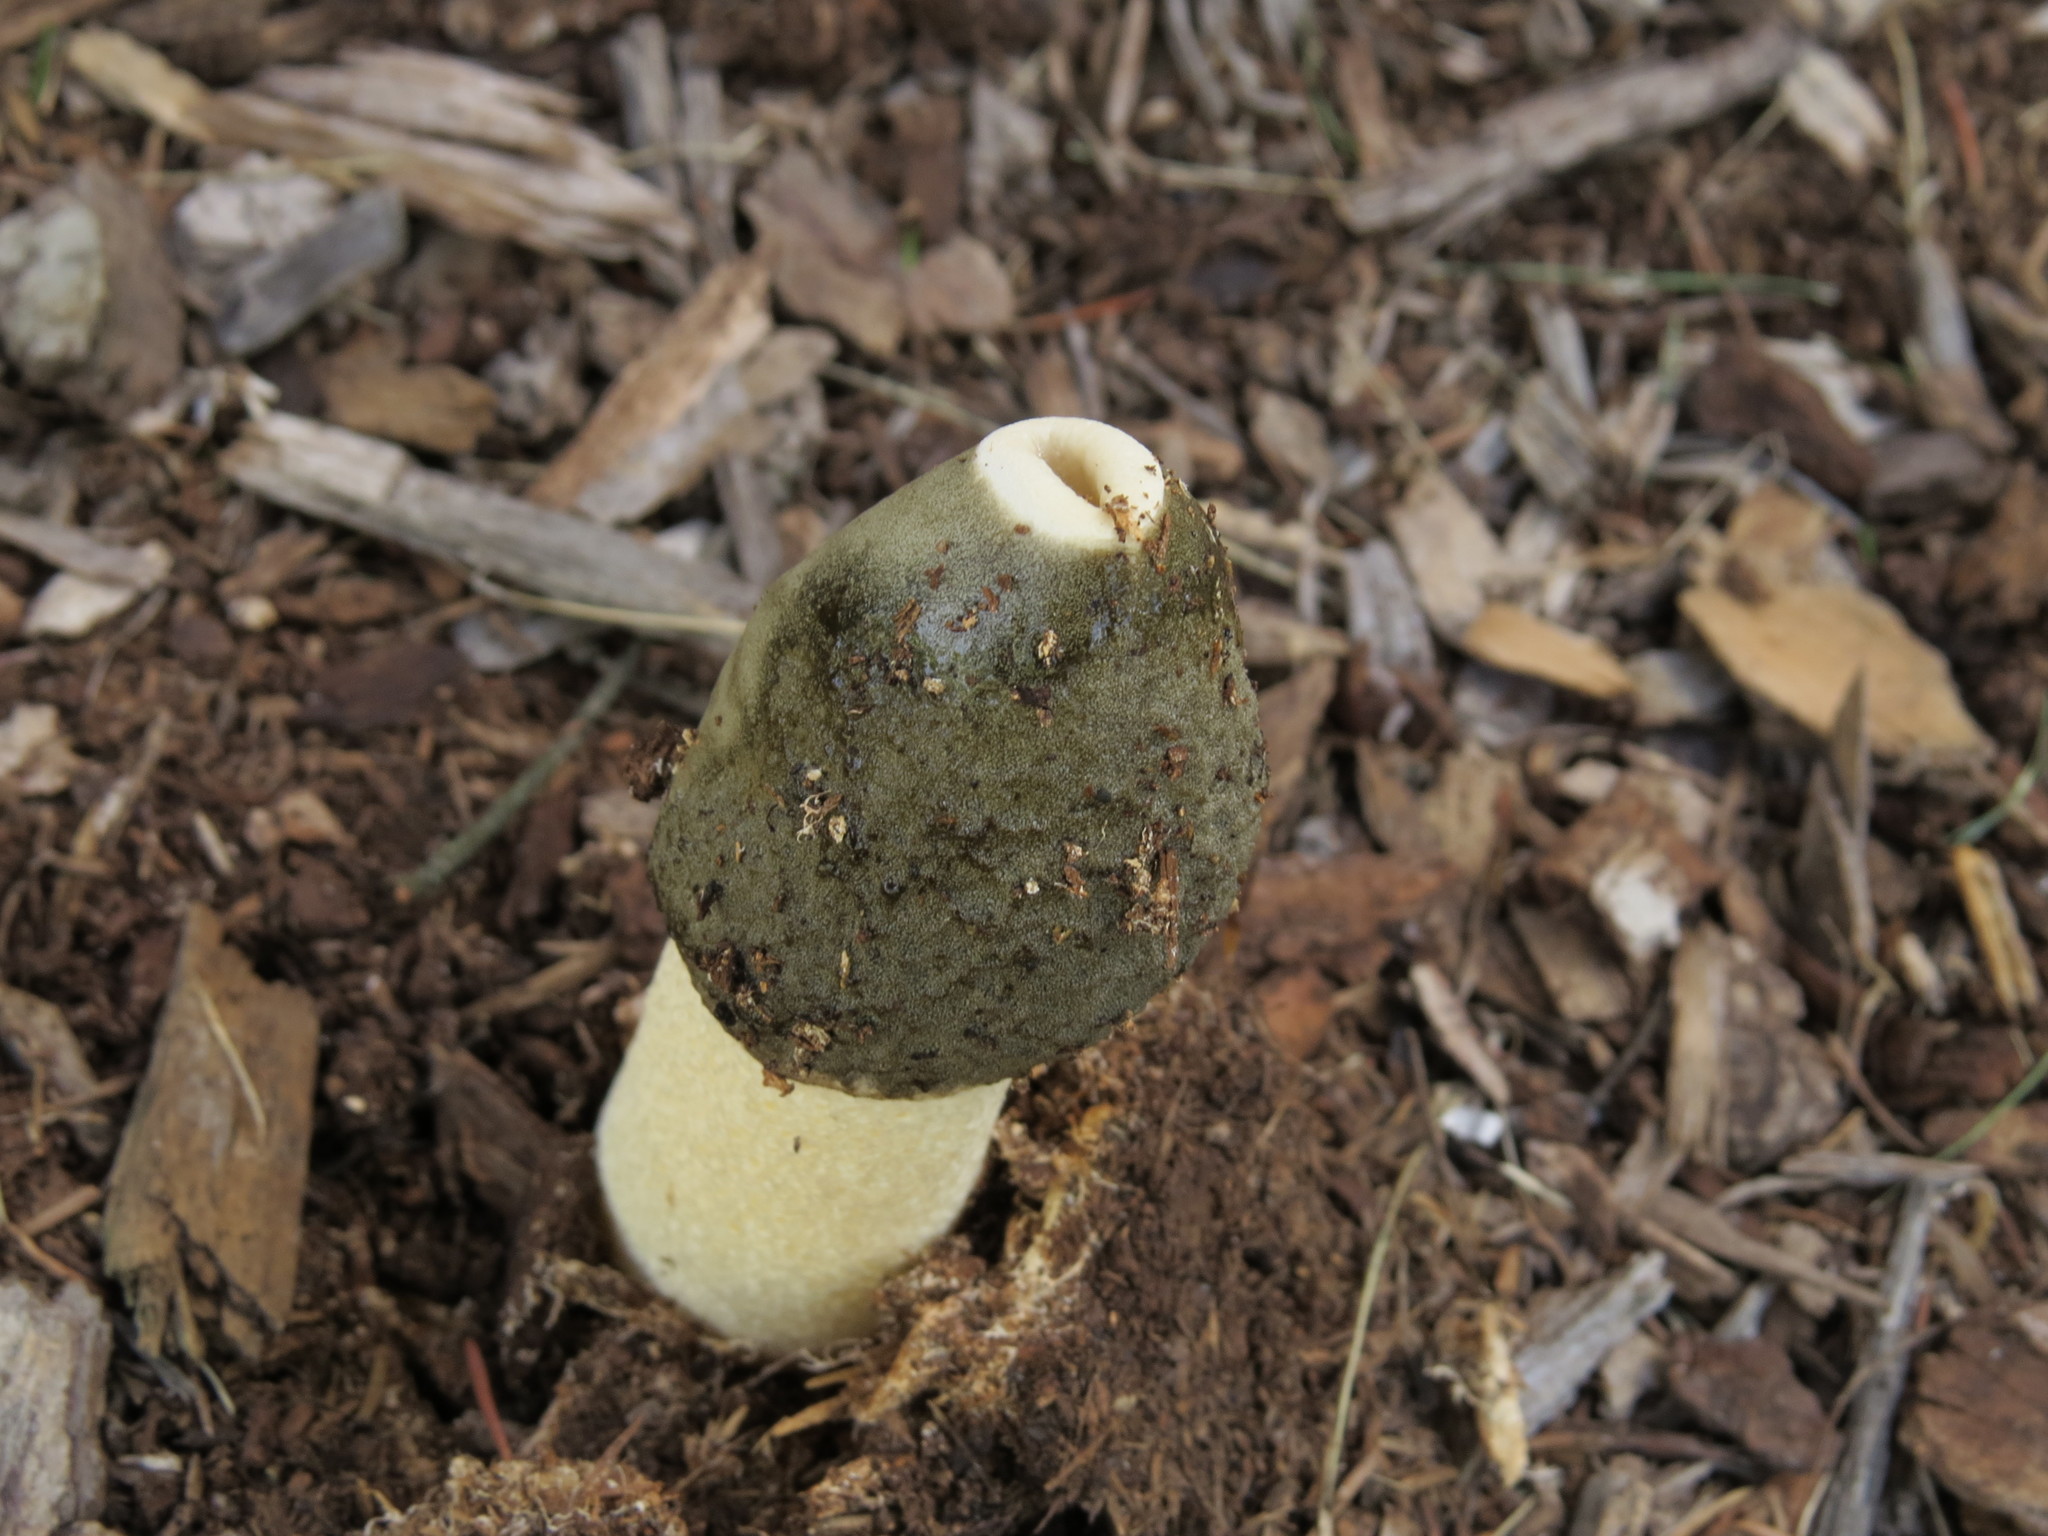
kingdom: Fungi
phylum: Basidiomycota
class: Agaricomycetes
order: Phallales
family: Phallaceae
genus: Phallus
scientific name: Phallus ravenelii
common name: Ravenel's stinkhorn
